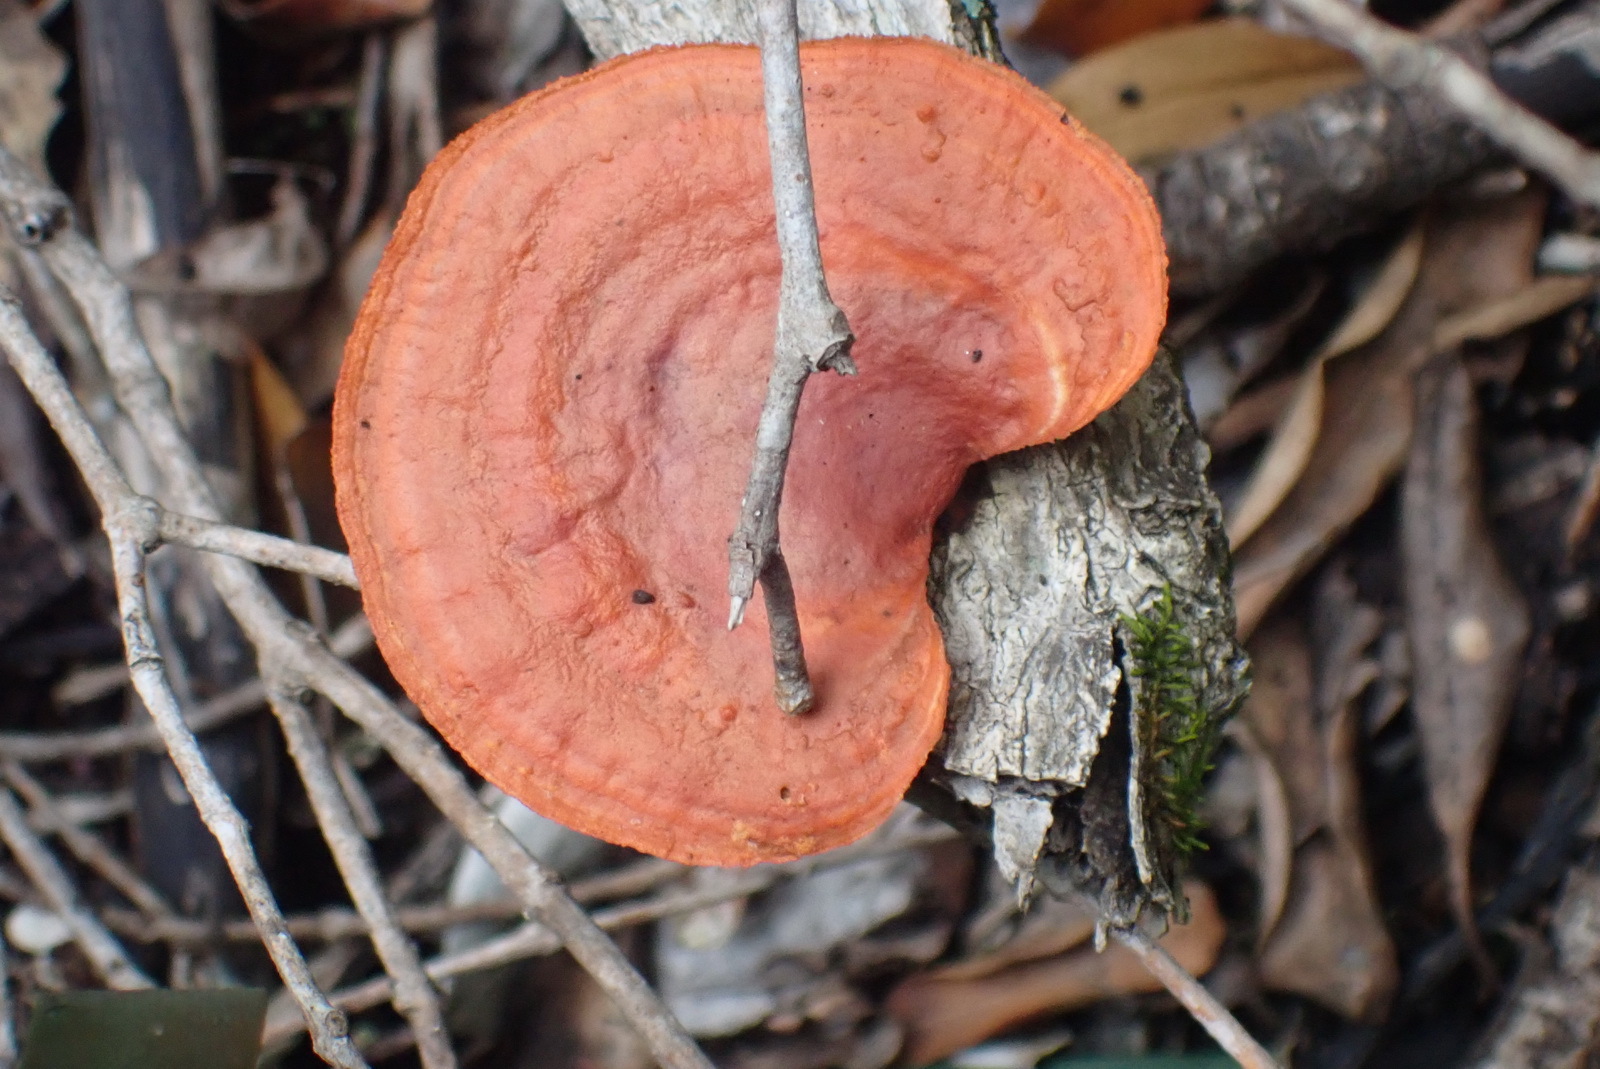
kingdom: Fungi
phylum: Basidiomycota
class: Agaricomycetes
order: Polyporales
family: Polyporaceae
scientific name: Polyporaceae
